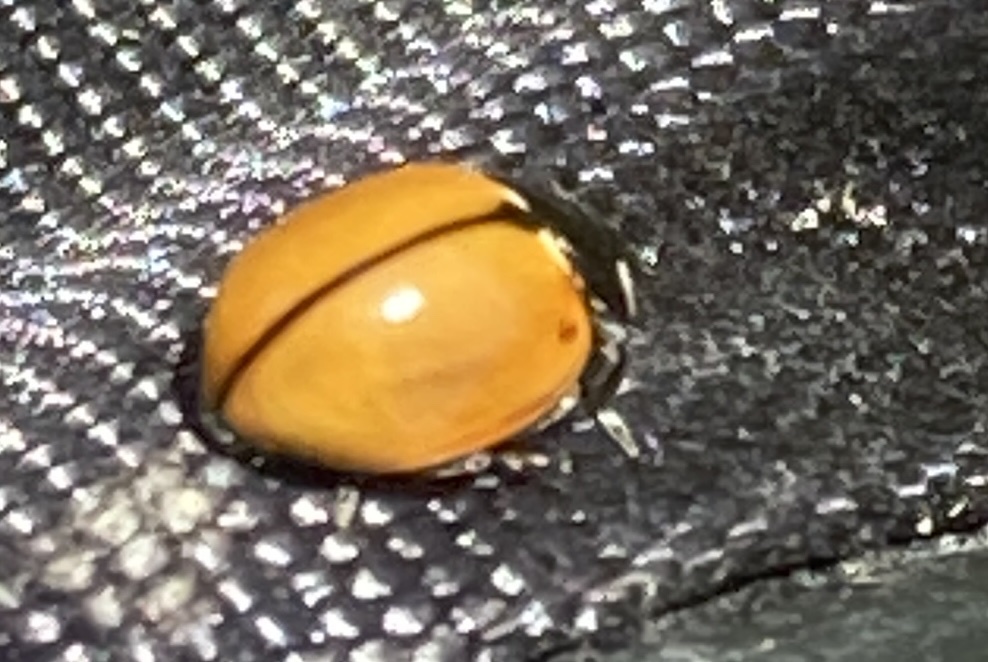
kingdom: Animalia
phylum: Arthropoda
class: Insecta
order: Coleoptera
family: Coccinellidae
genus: Coccinella
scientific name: Coccinella californica
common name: Lady beetle
